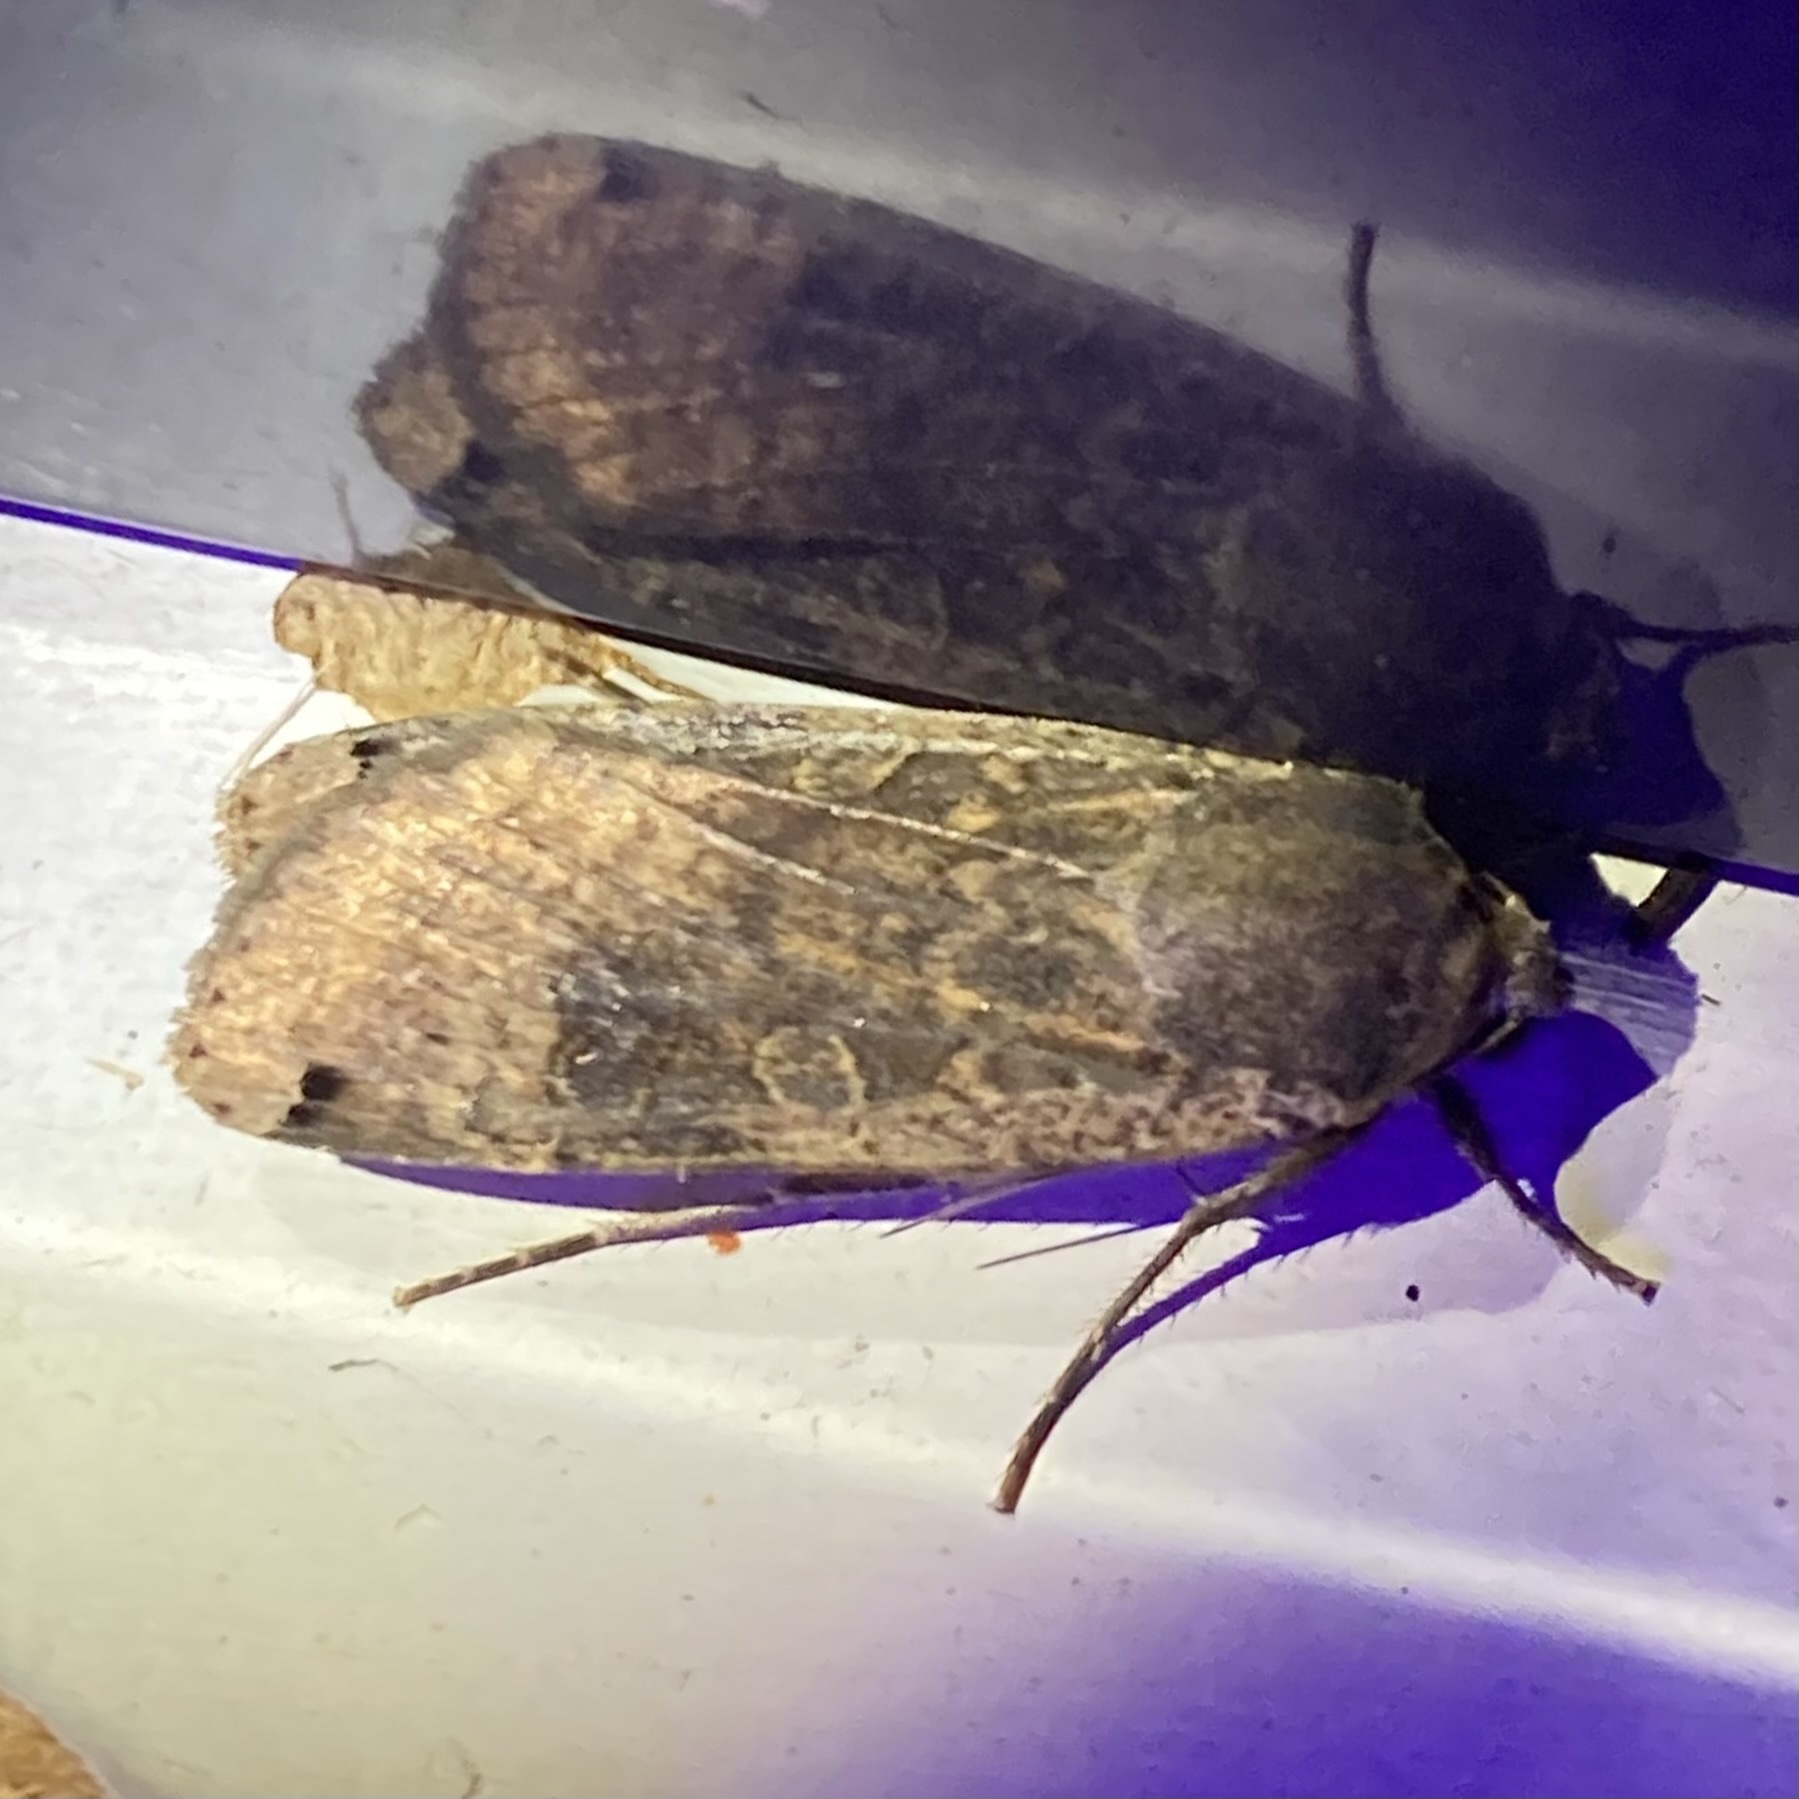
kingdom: Animalia
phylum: Arthropoda
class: Insecta
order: Lepidoptera
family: Noctuidae
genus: Noctua
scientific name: Noctua pronuba
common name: Large yellow underwing
